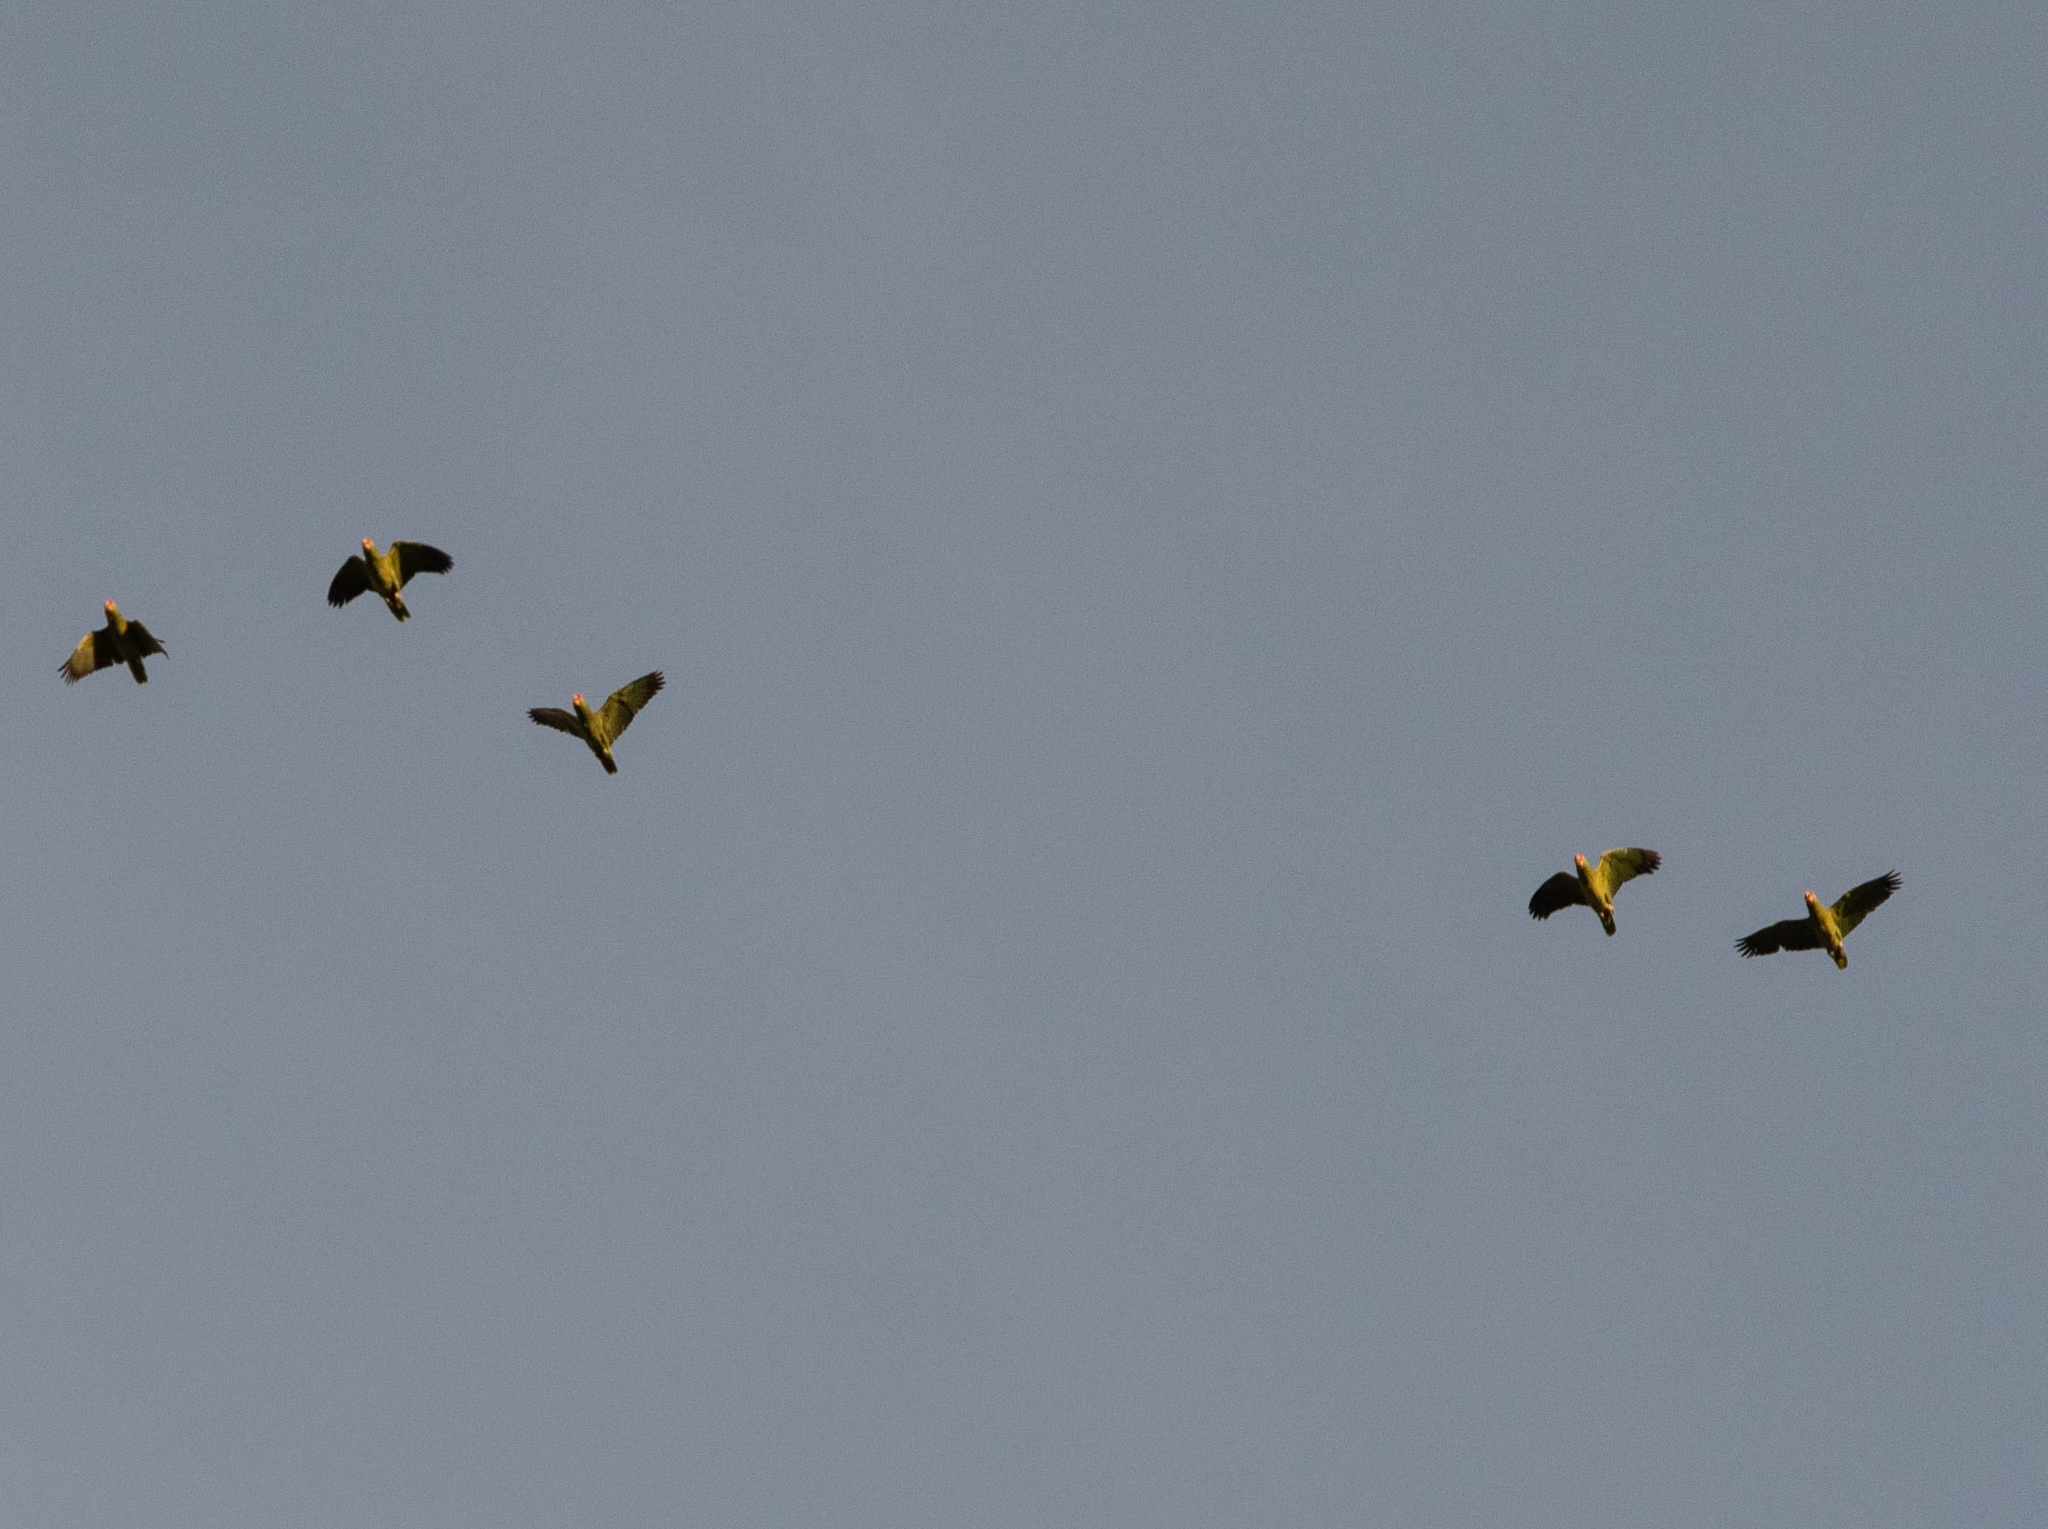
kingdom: Animalia
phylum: Chordata
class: Aves
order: Psittaciformes
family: Psittacidae
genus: Amazona
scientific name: Amazona
